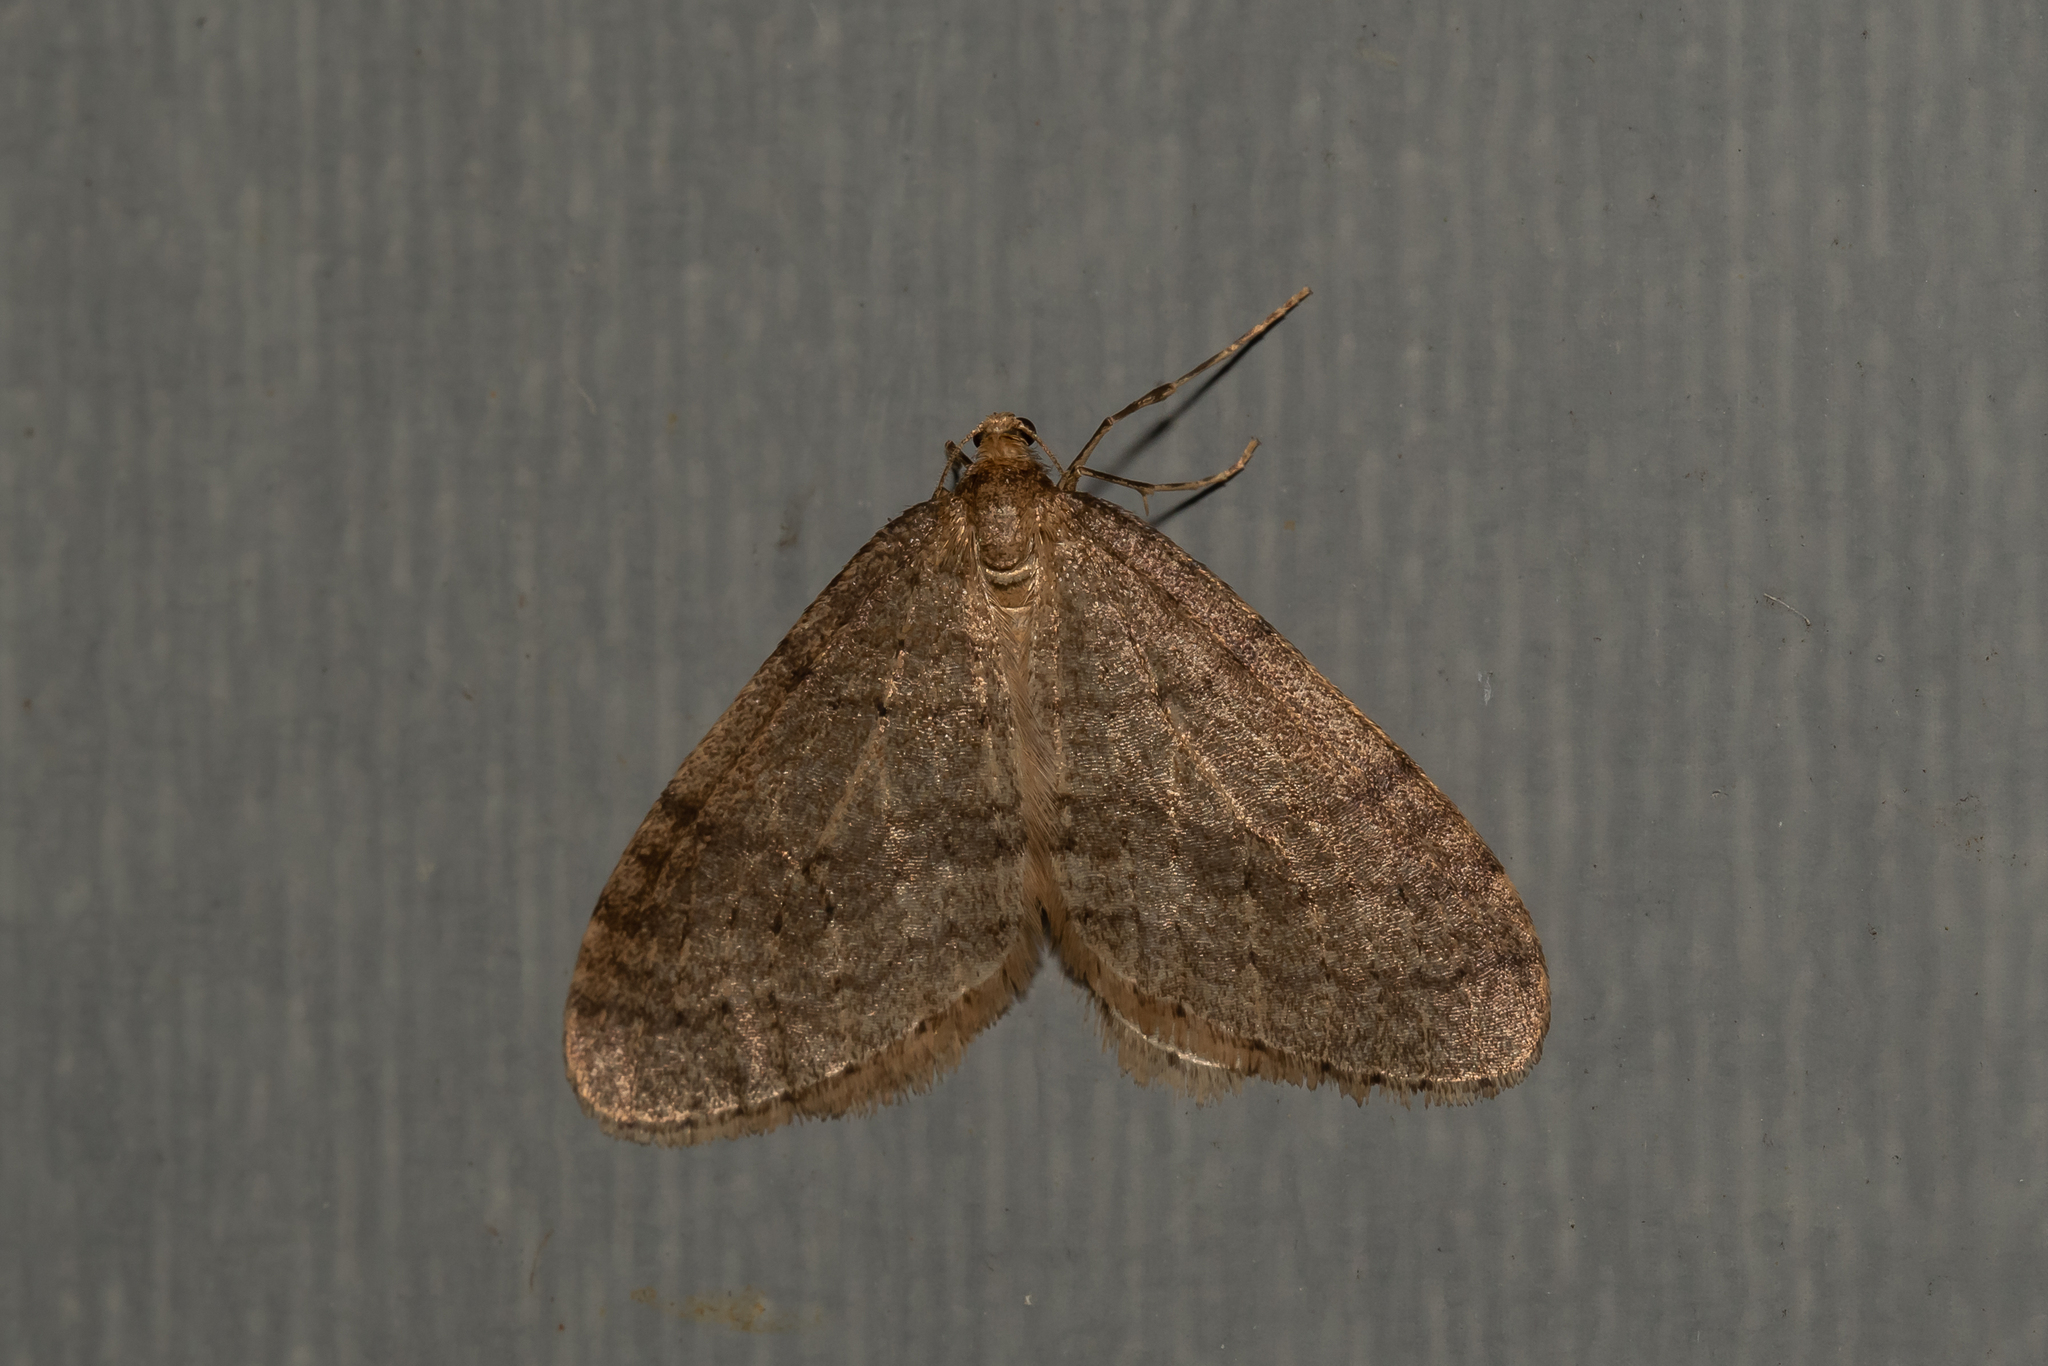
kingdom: Animalia
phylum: Arthropoda
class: Insecta
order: Lepidoptera
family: Geometridae
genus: Operophtera
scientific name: Operophtera brumata
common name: Winter moth
